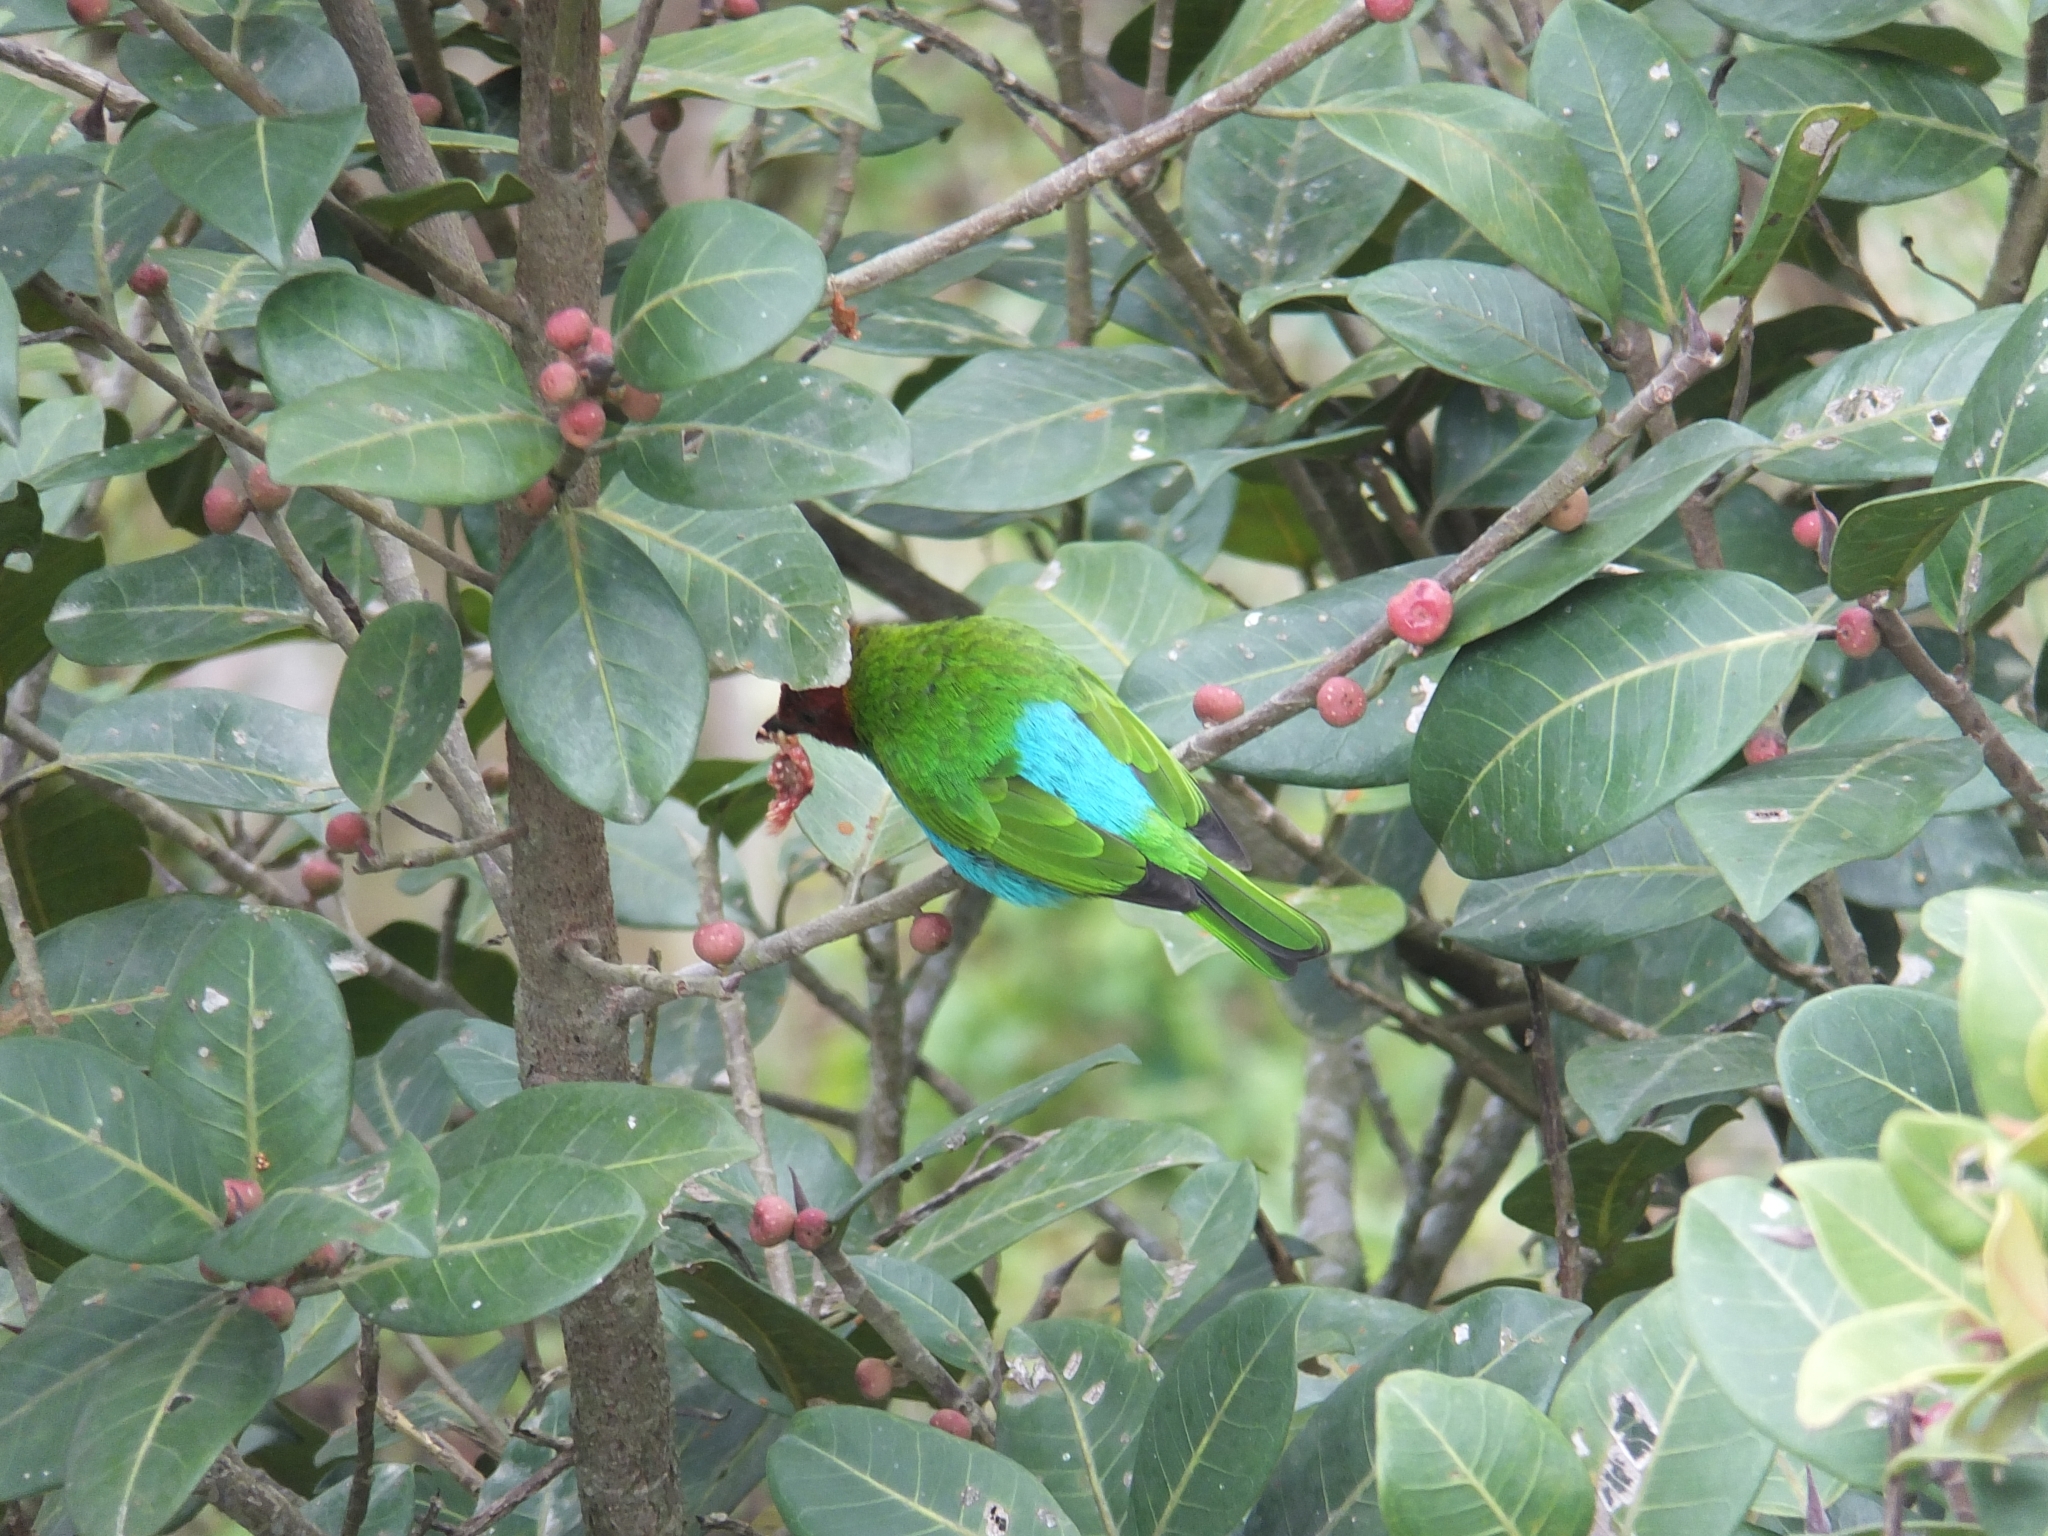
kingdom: Animalia
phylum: Chordata
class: Aves
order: Passeriformes
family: Thraupidae
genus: Tangara
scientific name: Tangara gyrola
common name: Bay-headed tanager
